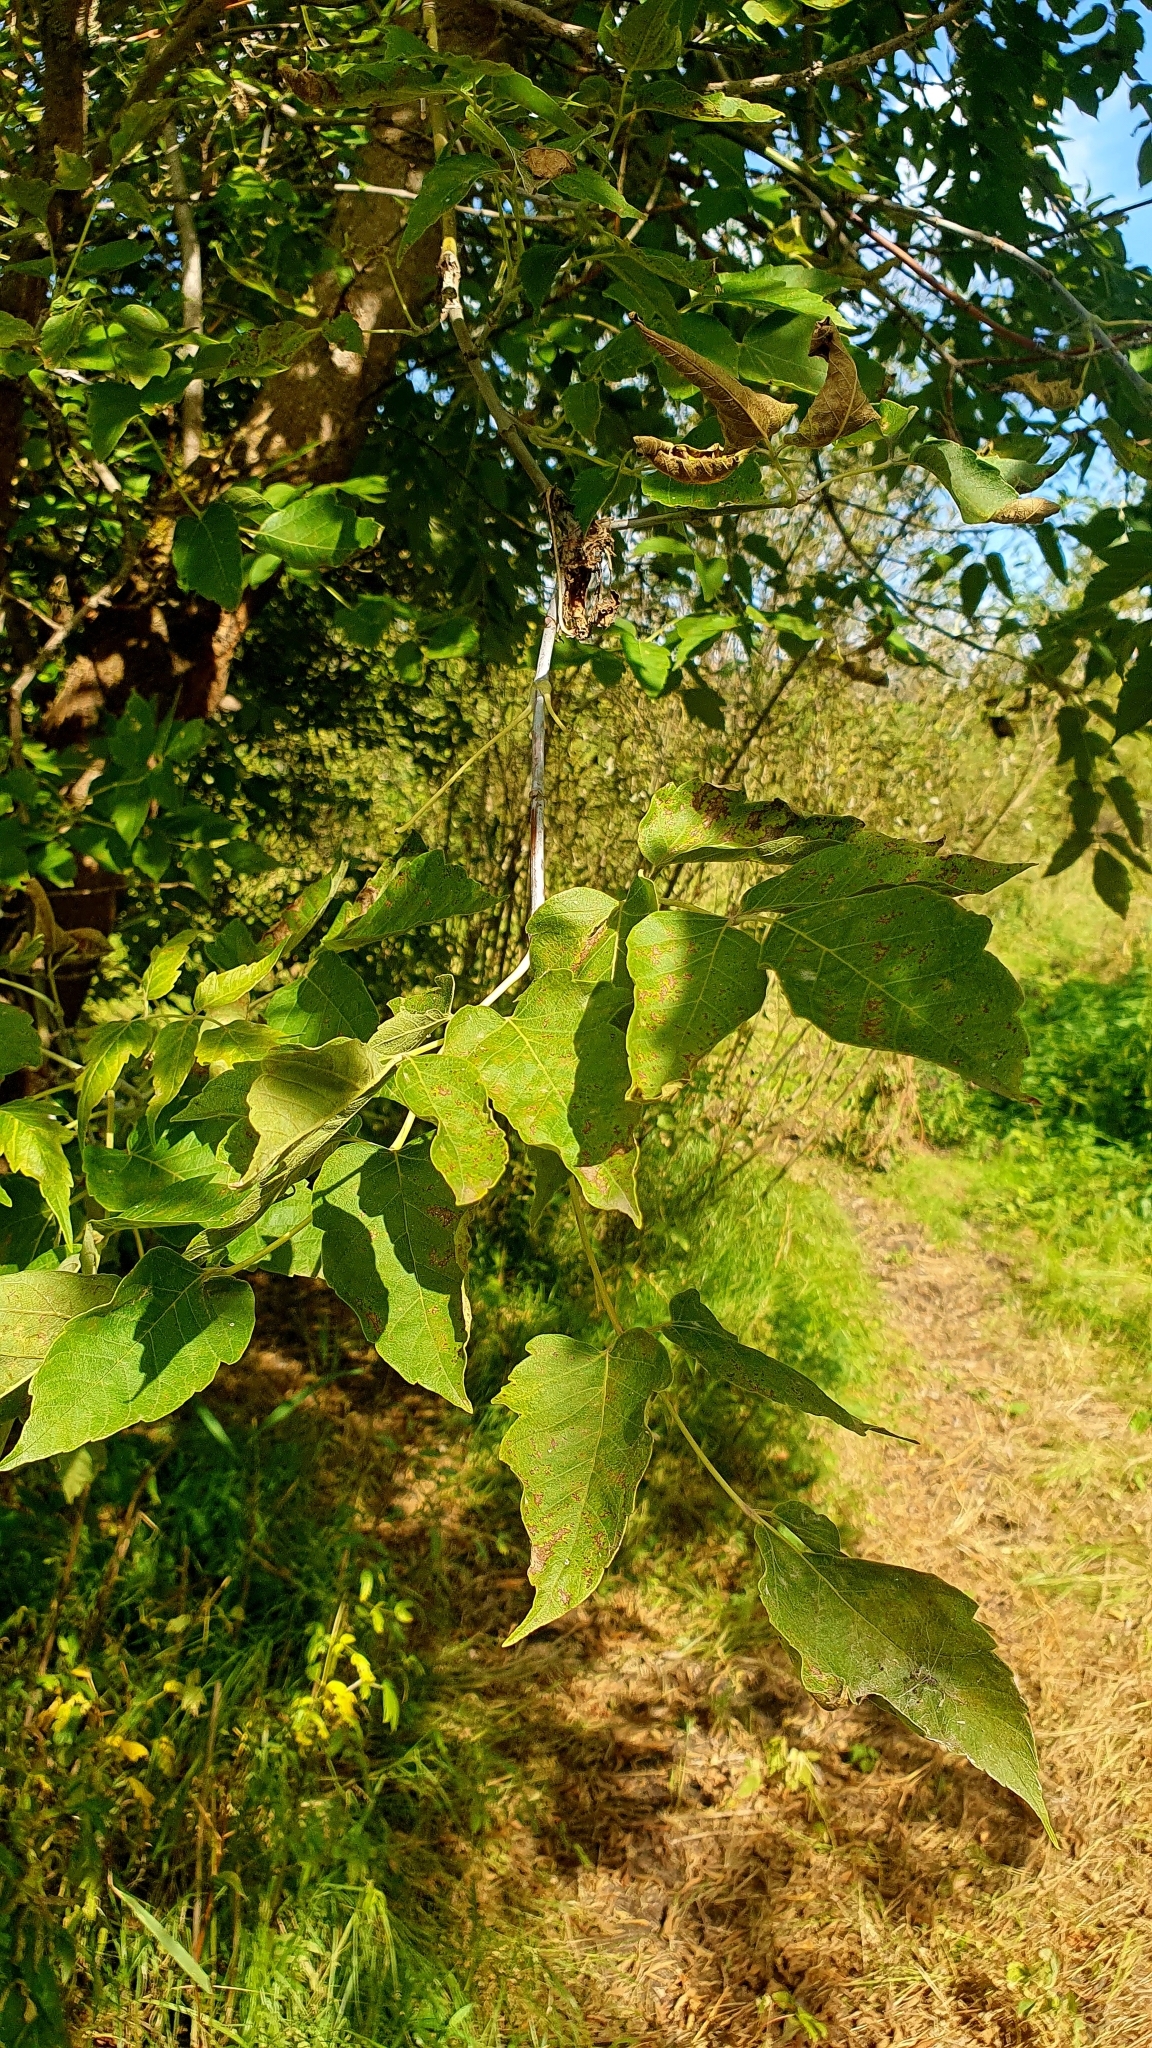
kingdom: Plantae
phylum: Tracheophyta
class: Magnoliopsida
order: Sapindales
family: Sapindaceae
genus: Acer
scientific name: Acer negundo
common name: Ashleaf maple
